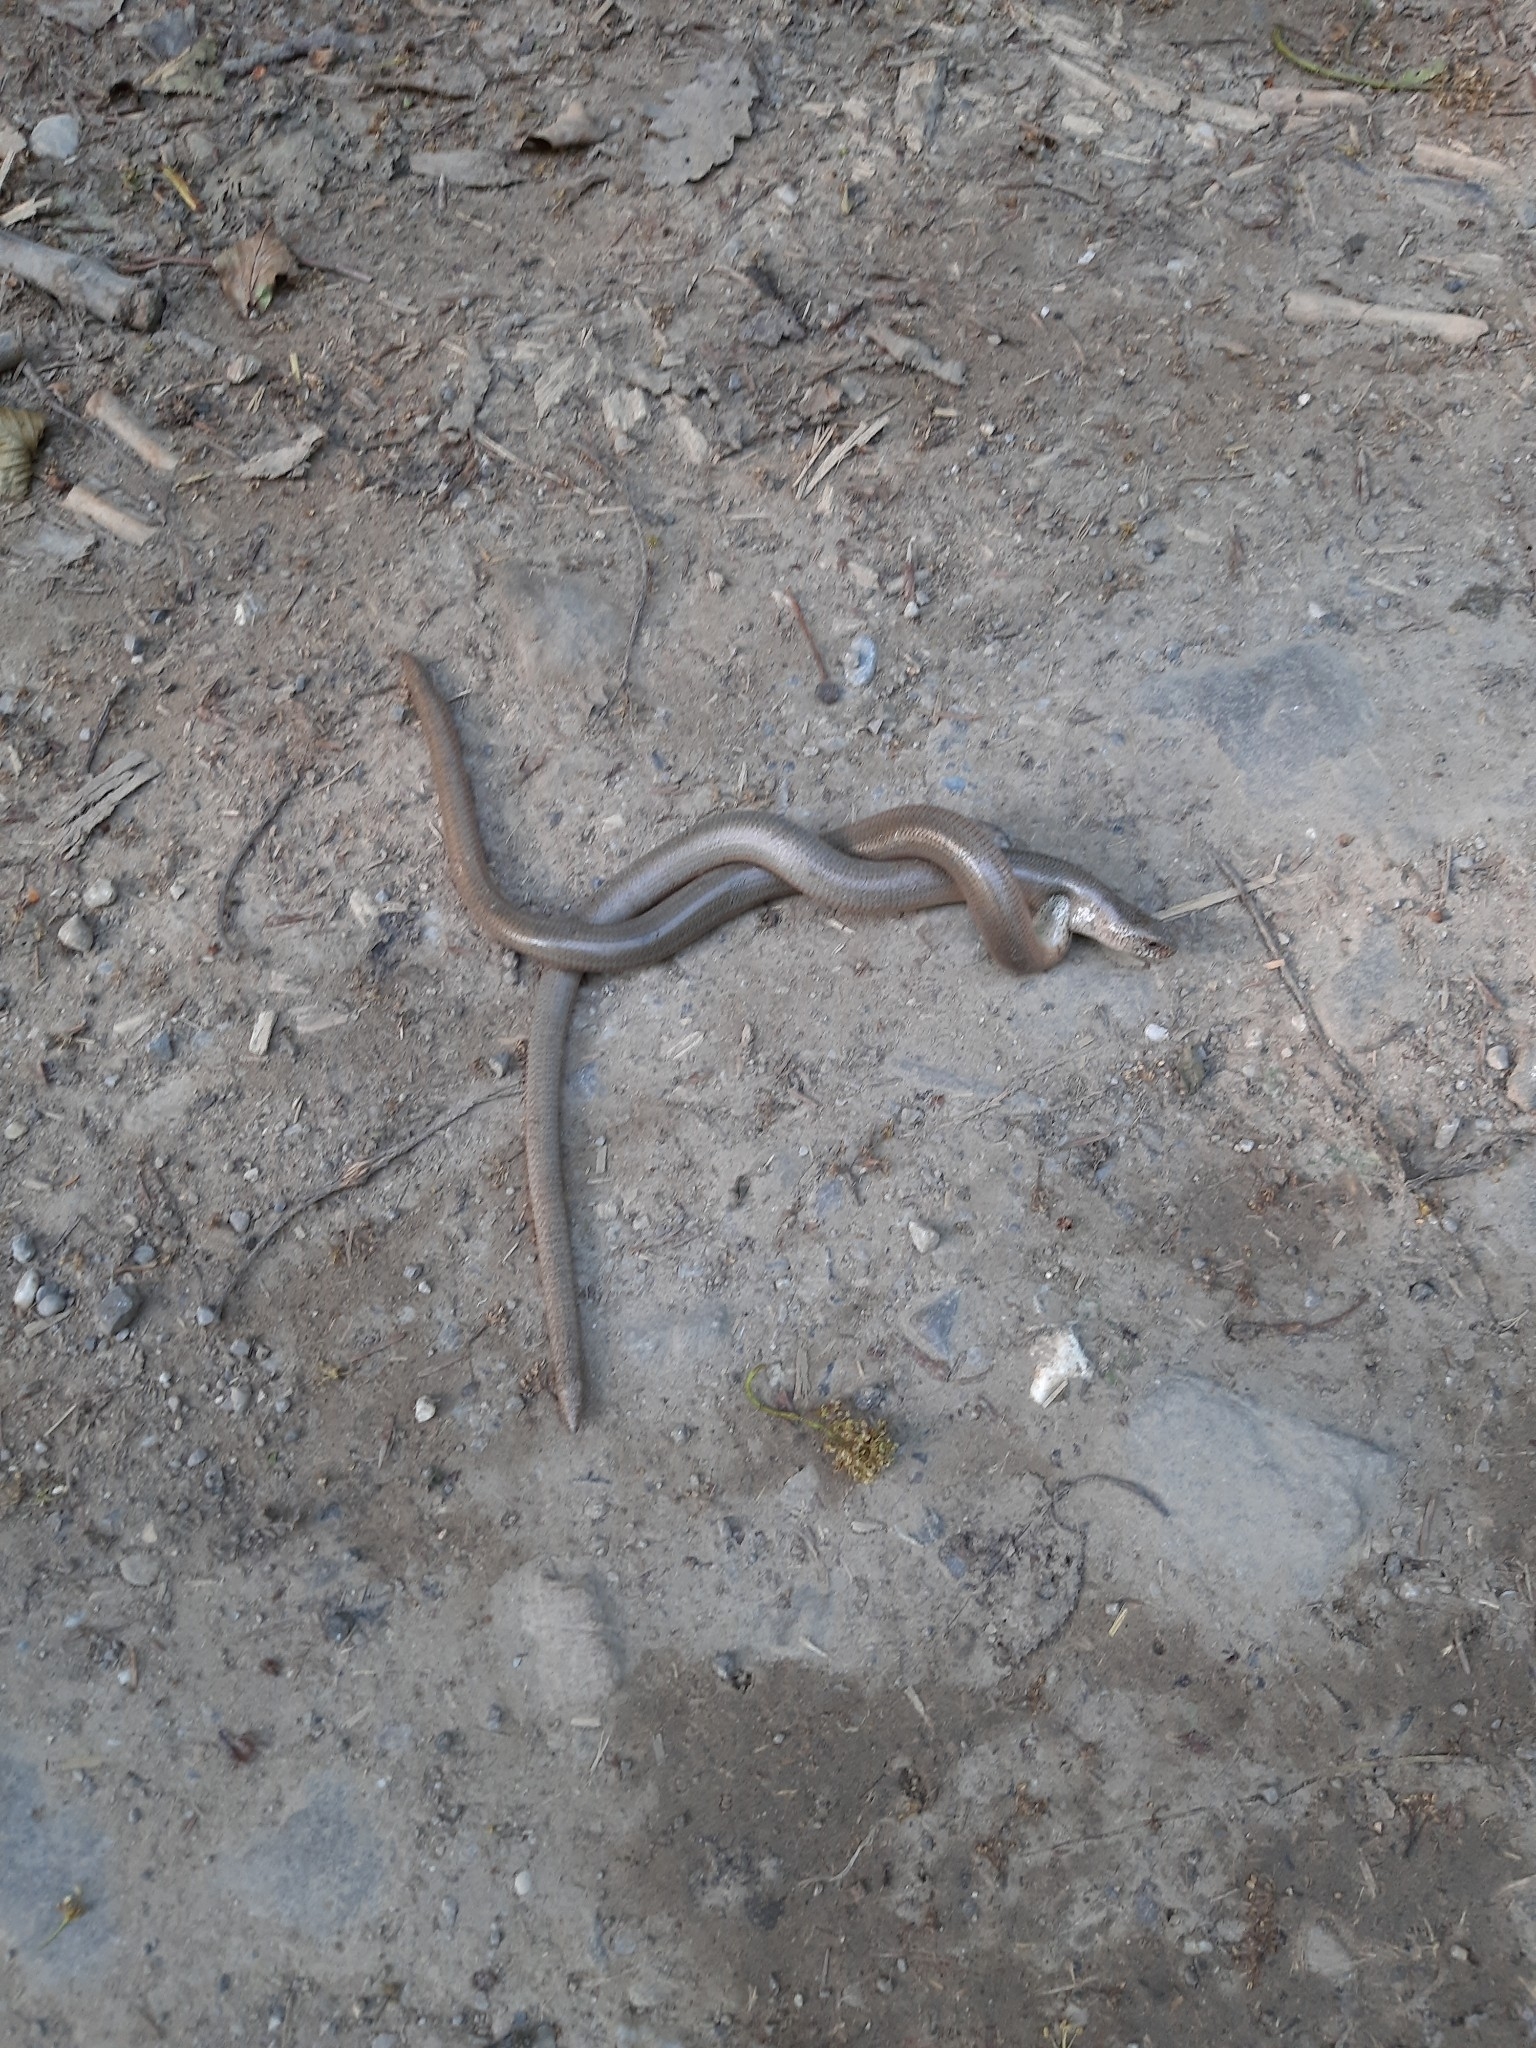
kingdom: Animalia
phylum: Chordata
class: Squamata
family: Anguidae
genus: Anguis
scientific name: Anguis fragilis
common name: Slow worm
